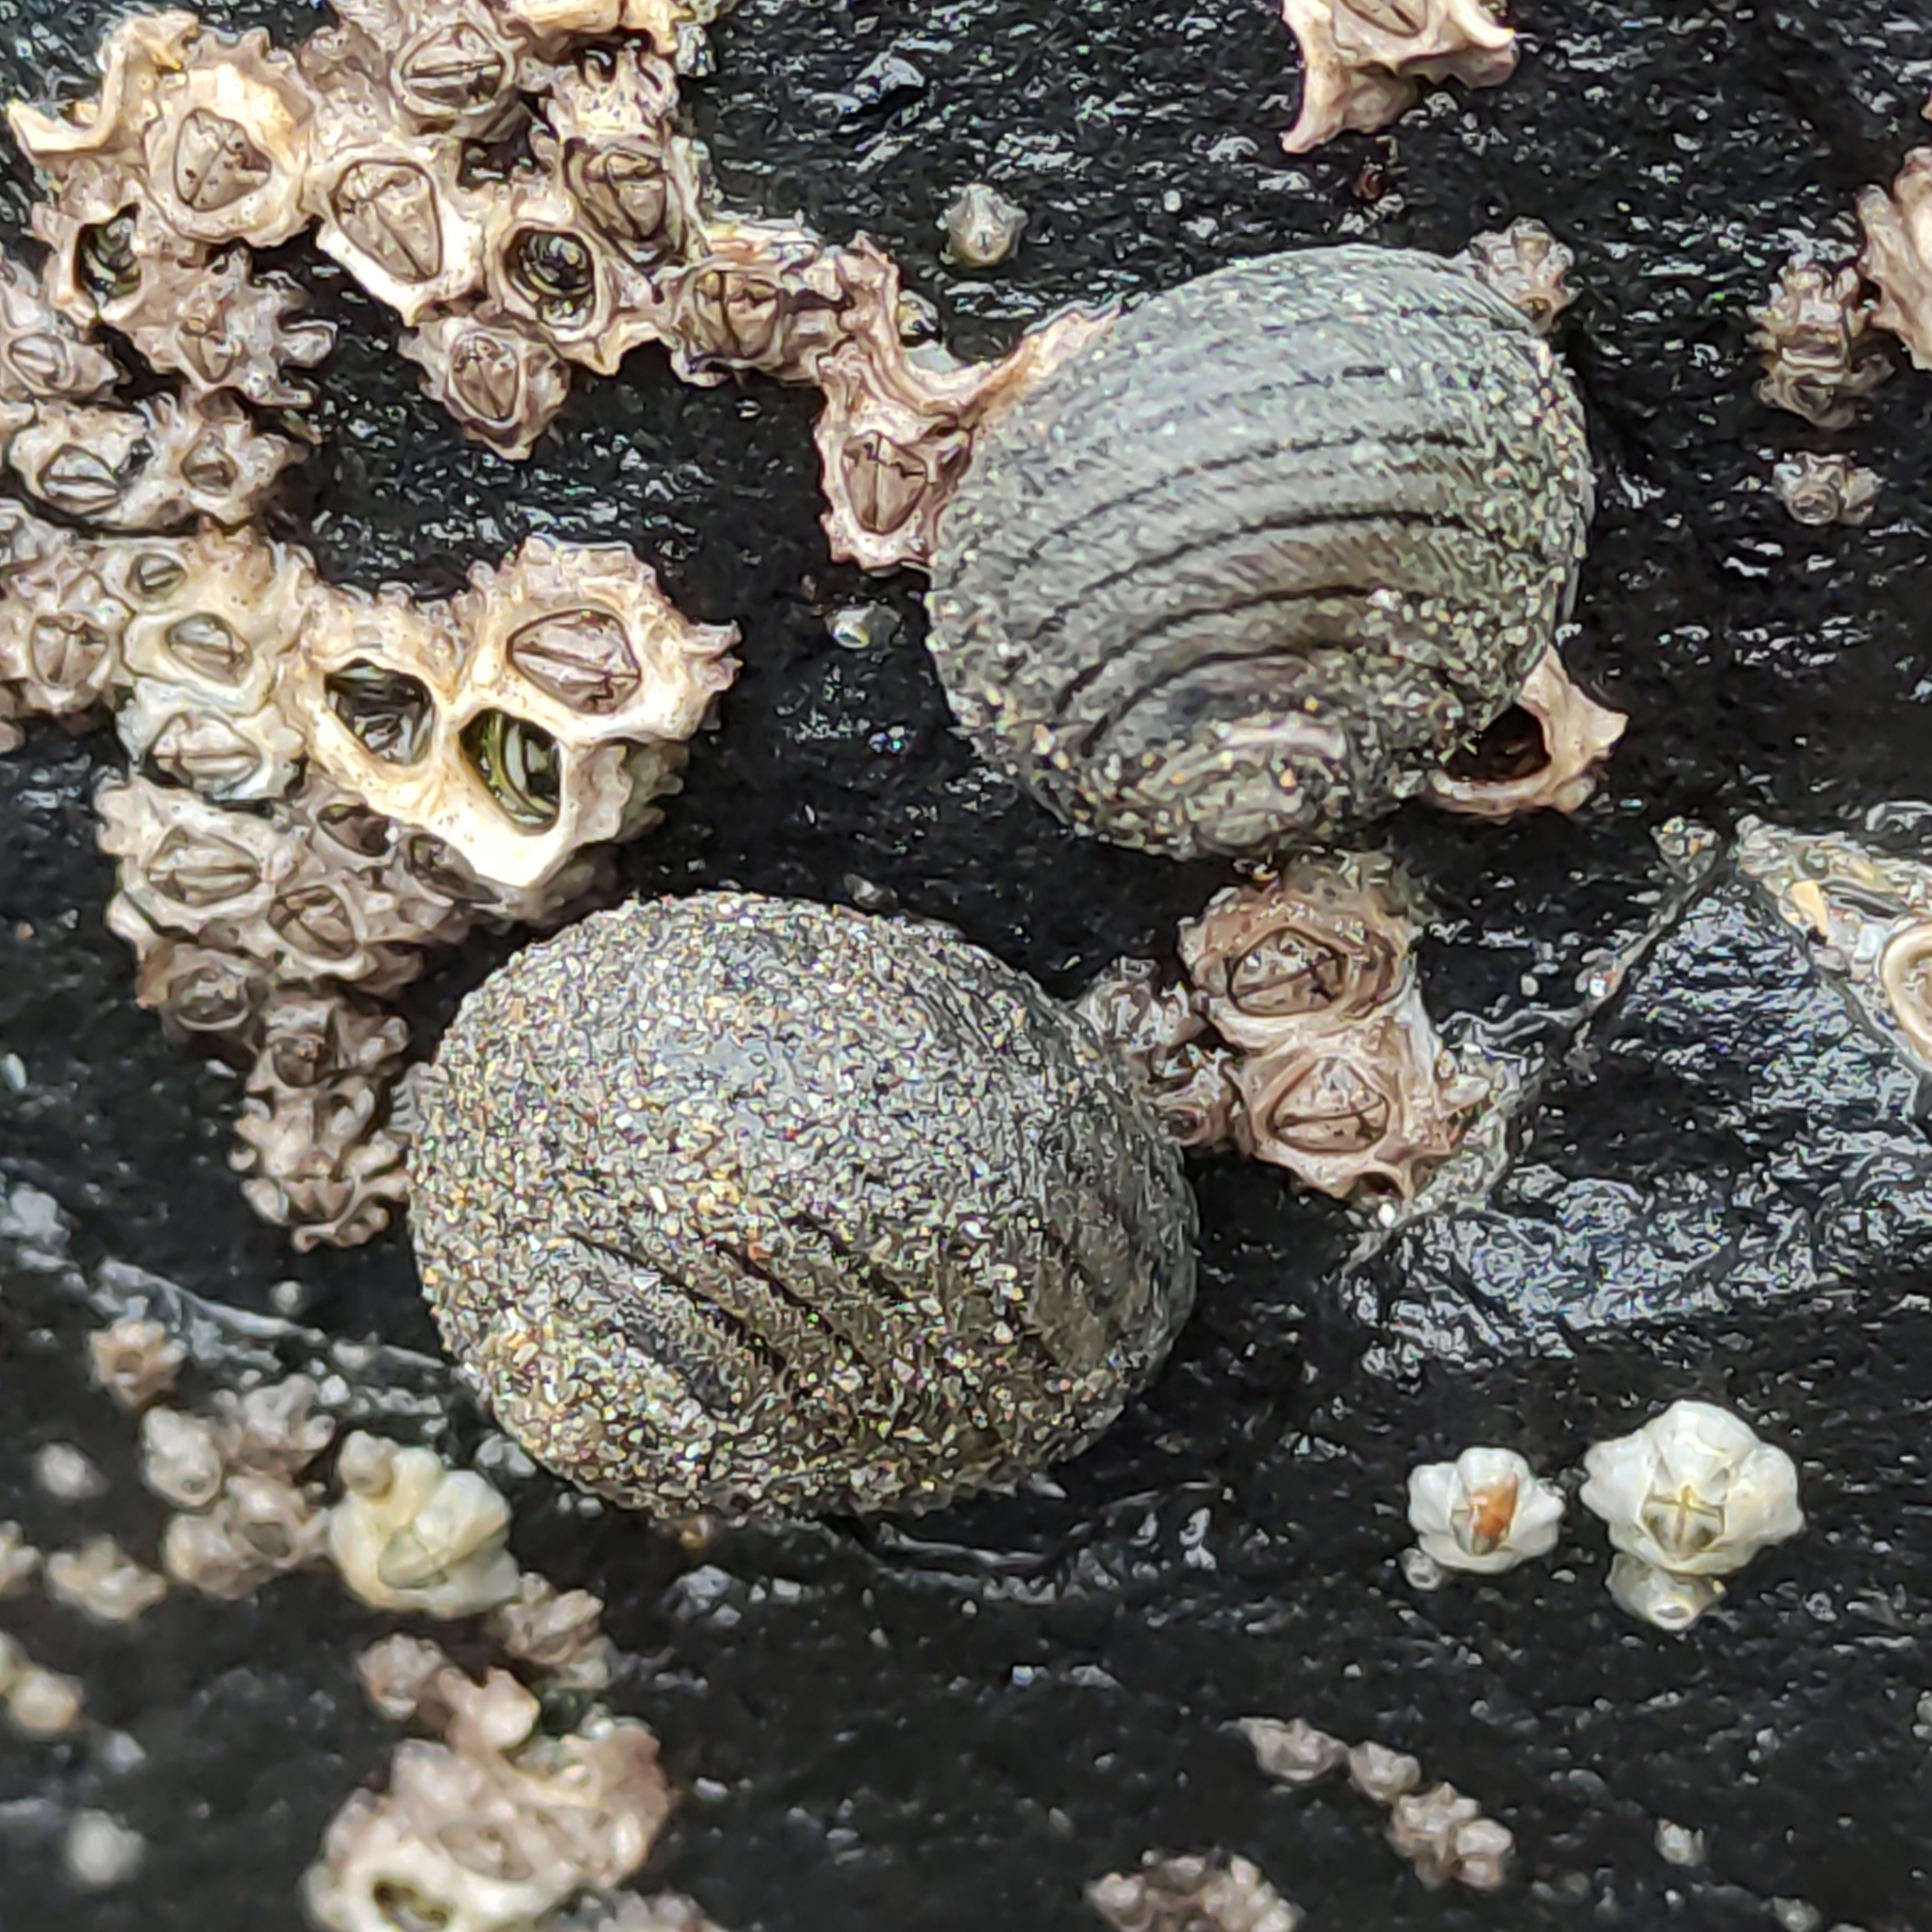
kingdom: Animalia
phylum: Mollusca
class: Gastropoda
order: Trochida
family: Trochidae
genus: Diloma
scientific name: Diloma aethiops
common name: Scorched monodont
